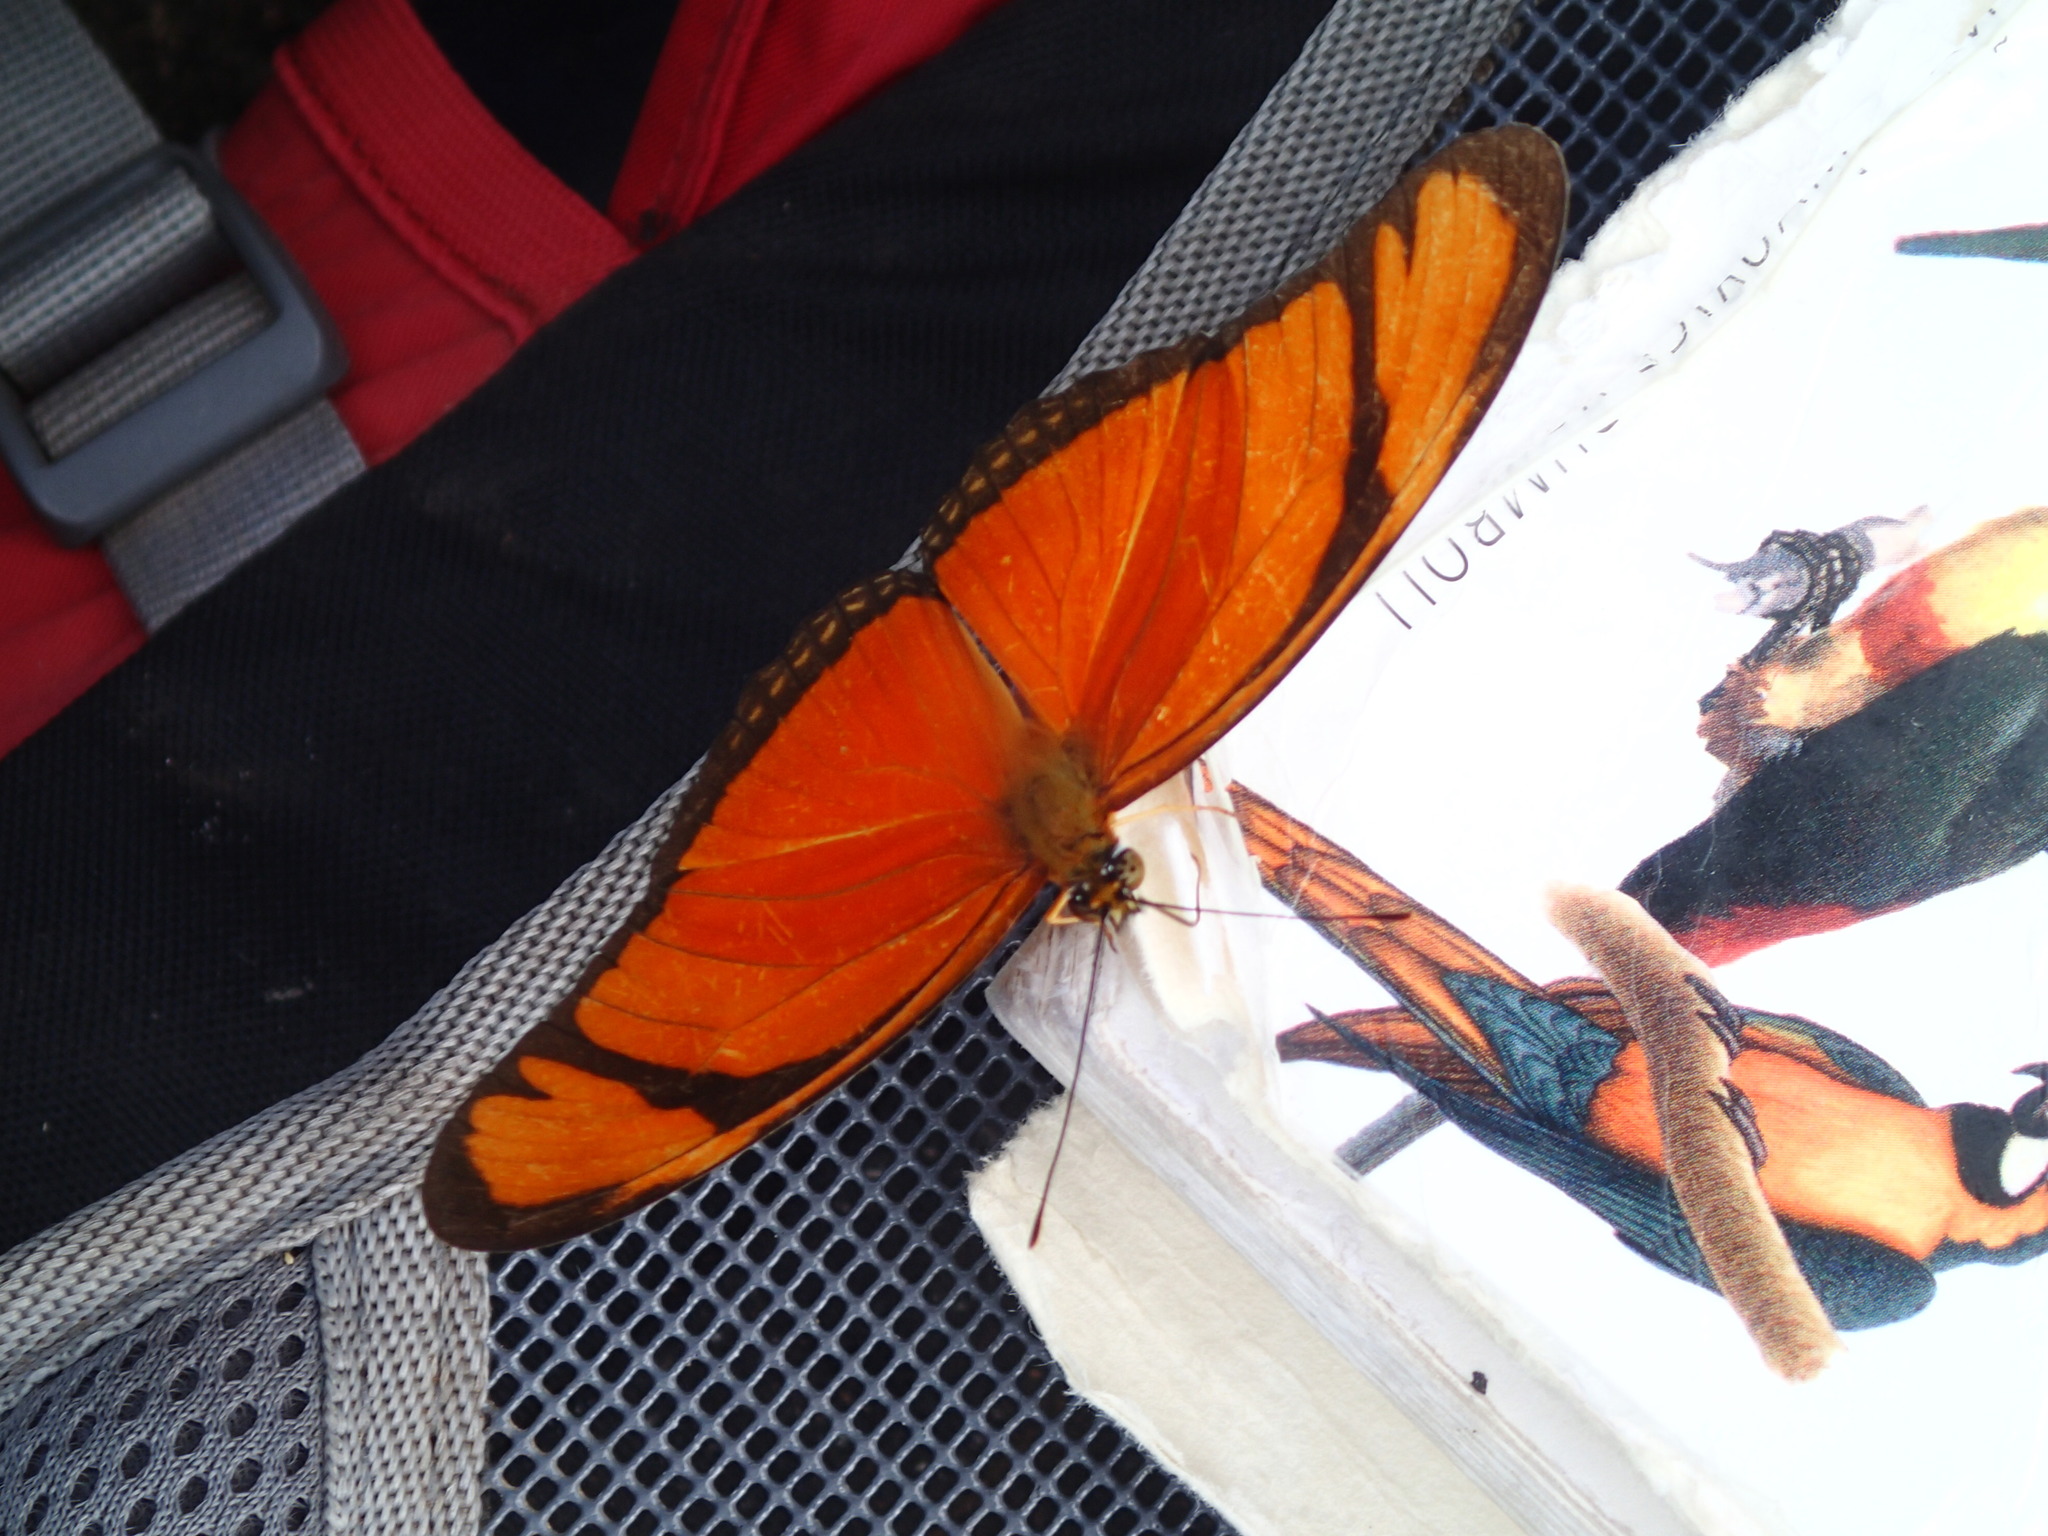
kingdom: Animalia
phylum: Arthropoda
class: Insecta
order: Lepidoptera
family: Nymphalidae
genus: Dryas
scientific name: Dryas iulia
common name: Flambeau
